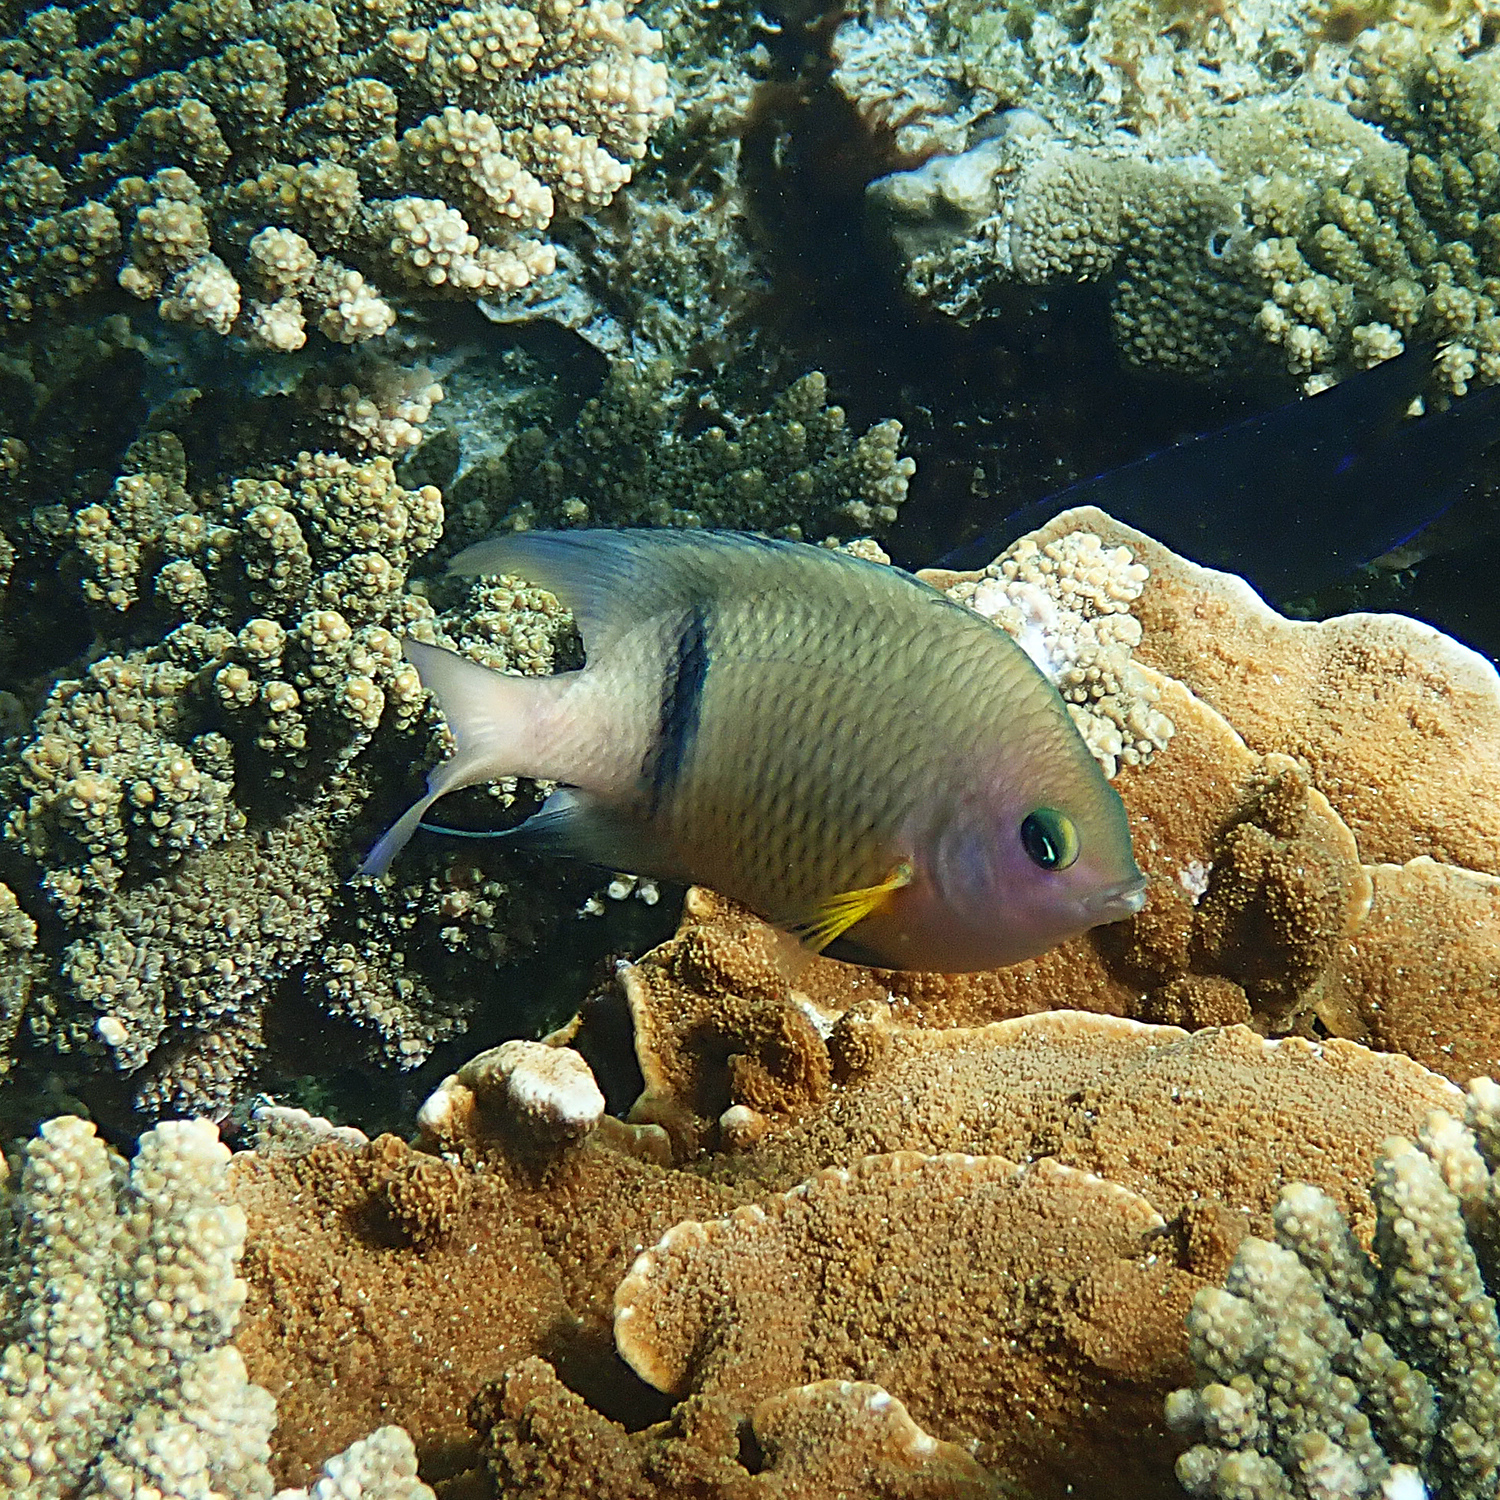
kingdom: Animalia
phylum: Chordata
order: Perciformes
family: Pomacentridae
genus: Plectroglyphidodon
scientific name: Plectroglyphidodon dickii
